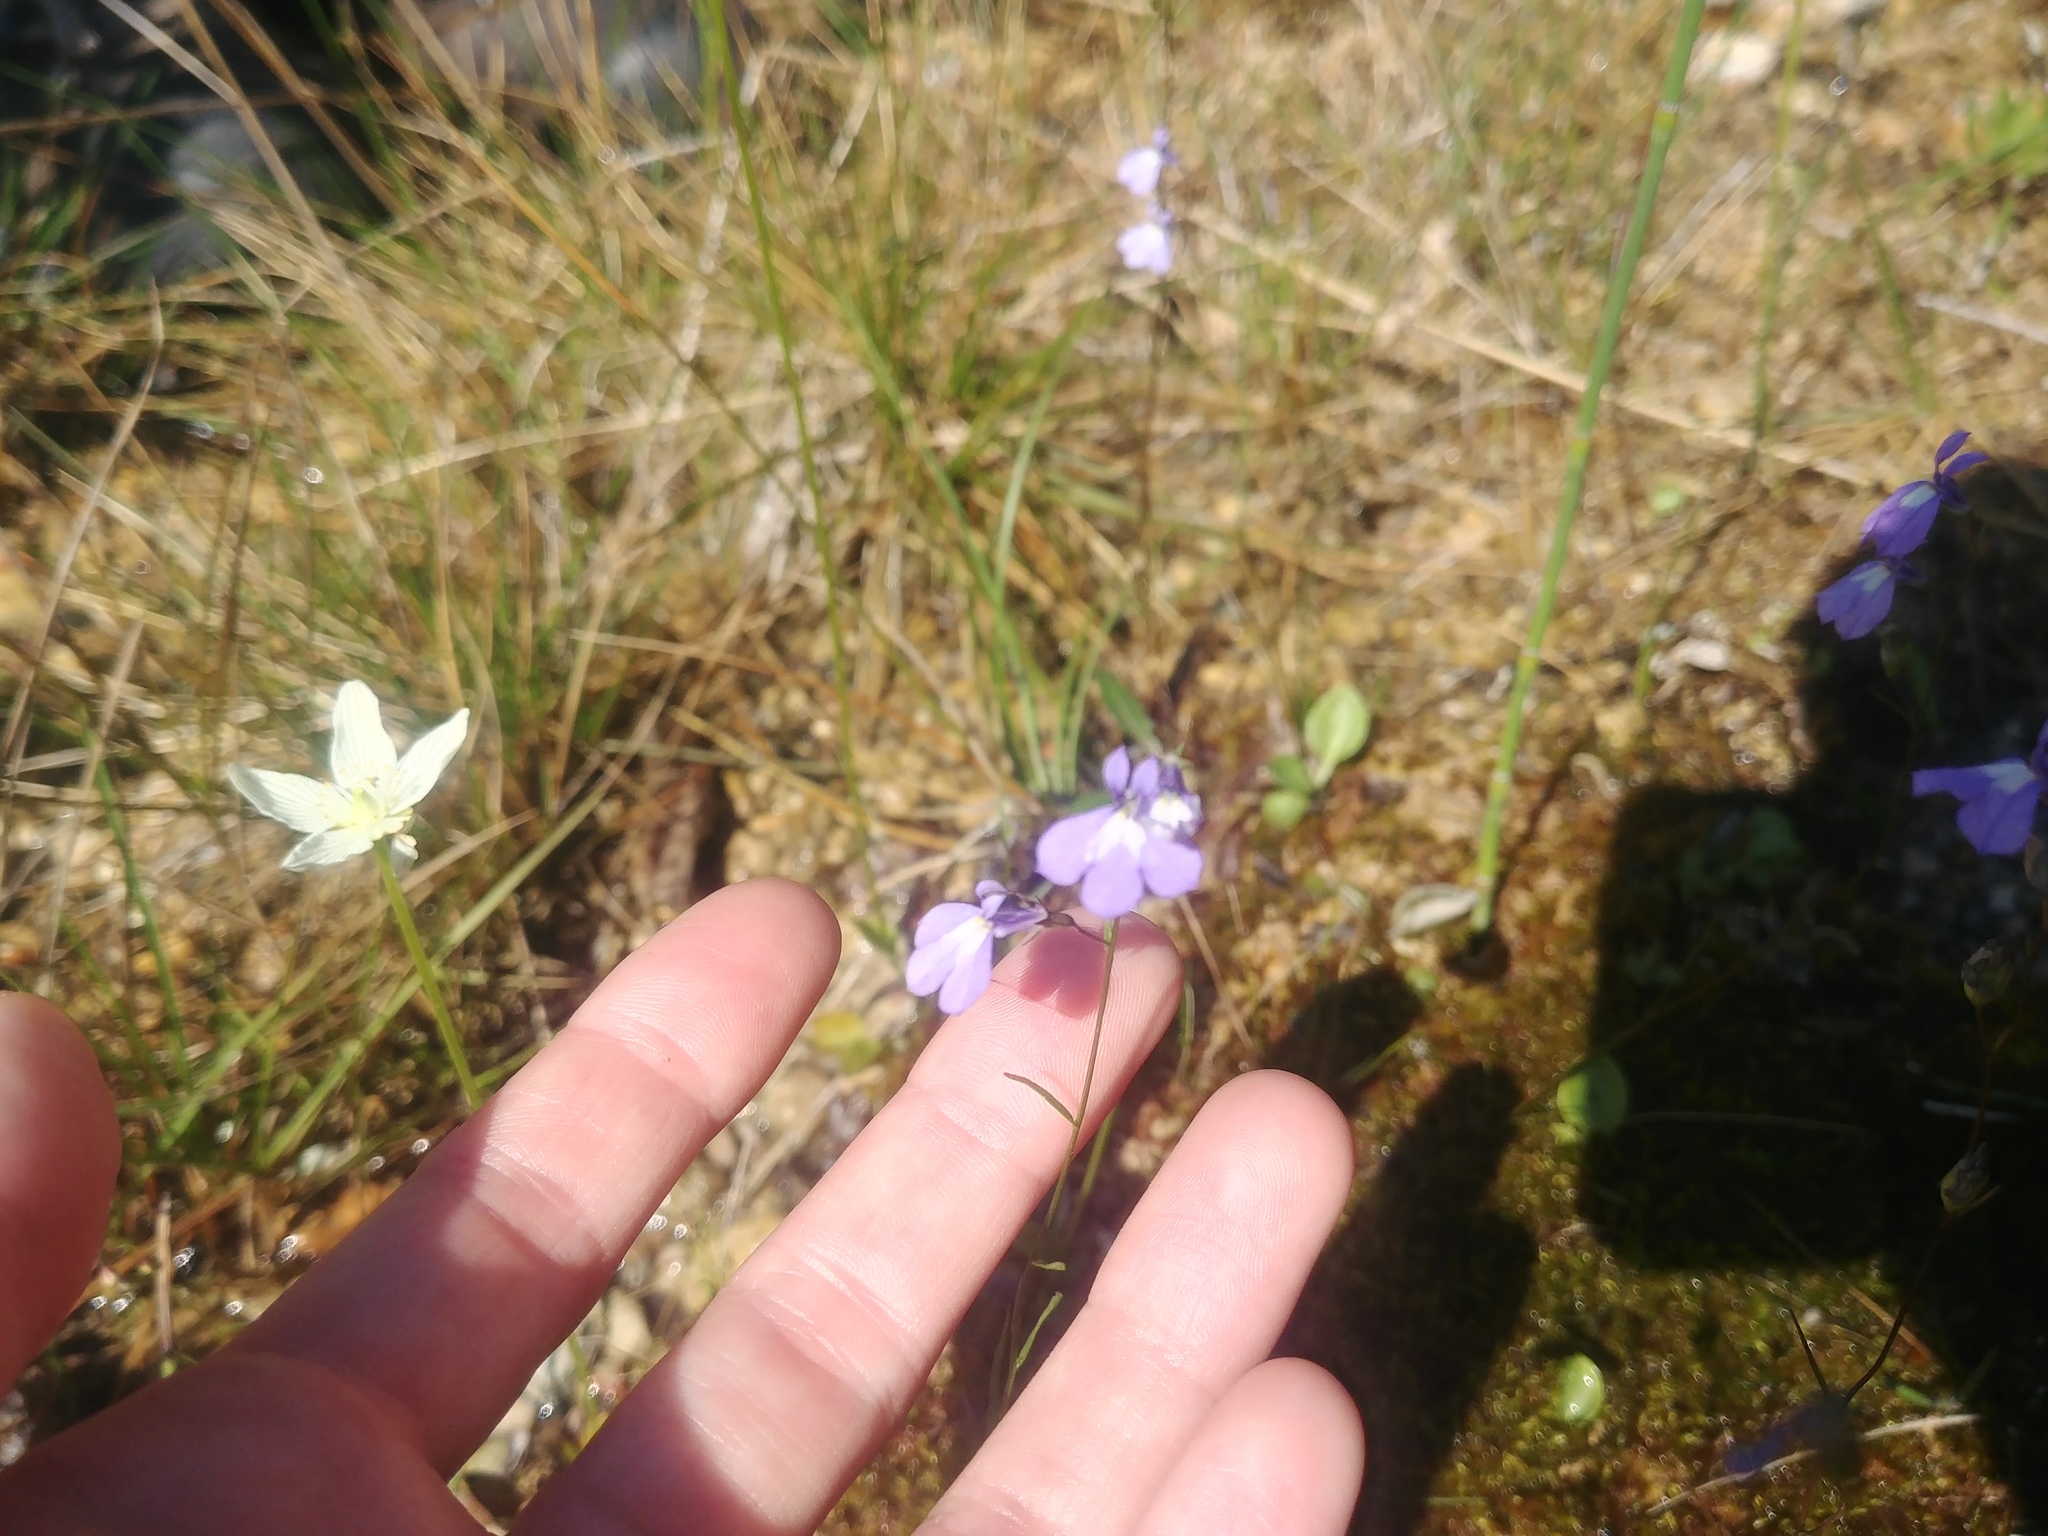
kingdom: Plantae
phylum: Tracheophyta
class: Magnoliopsida
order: Asterales
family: Campanulaceae
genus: Lobelia
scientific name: Lobelia kalmii
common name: Kalm's lobelia
